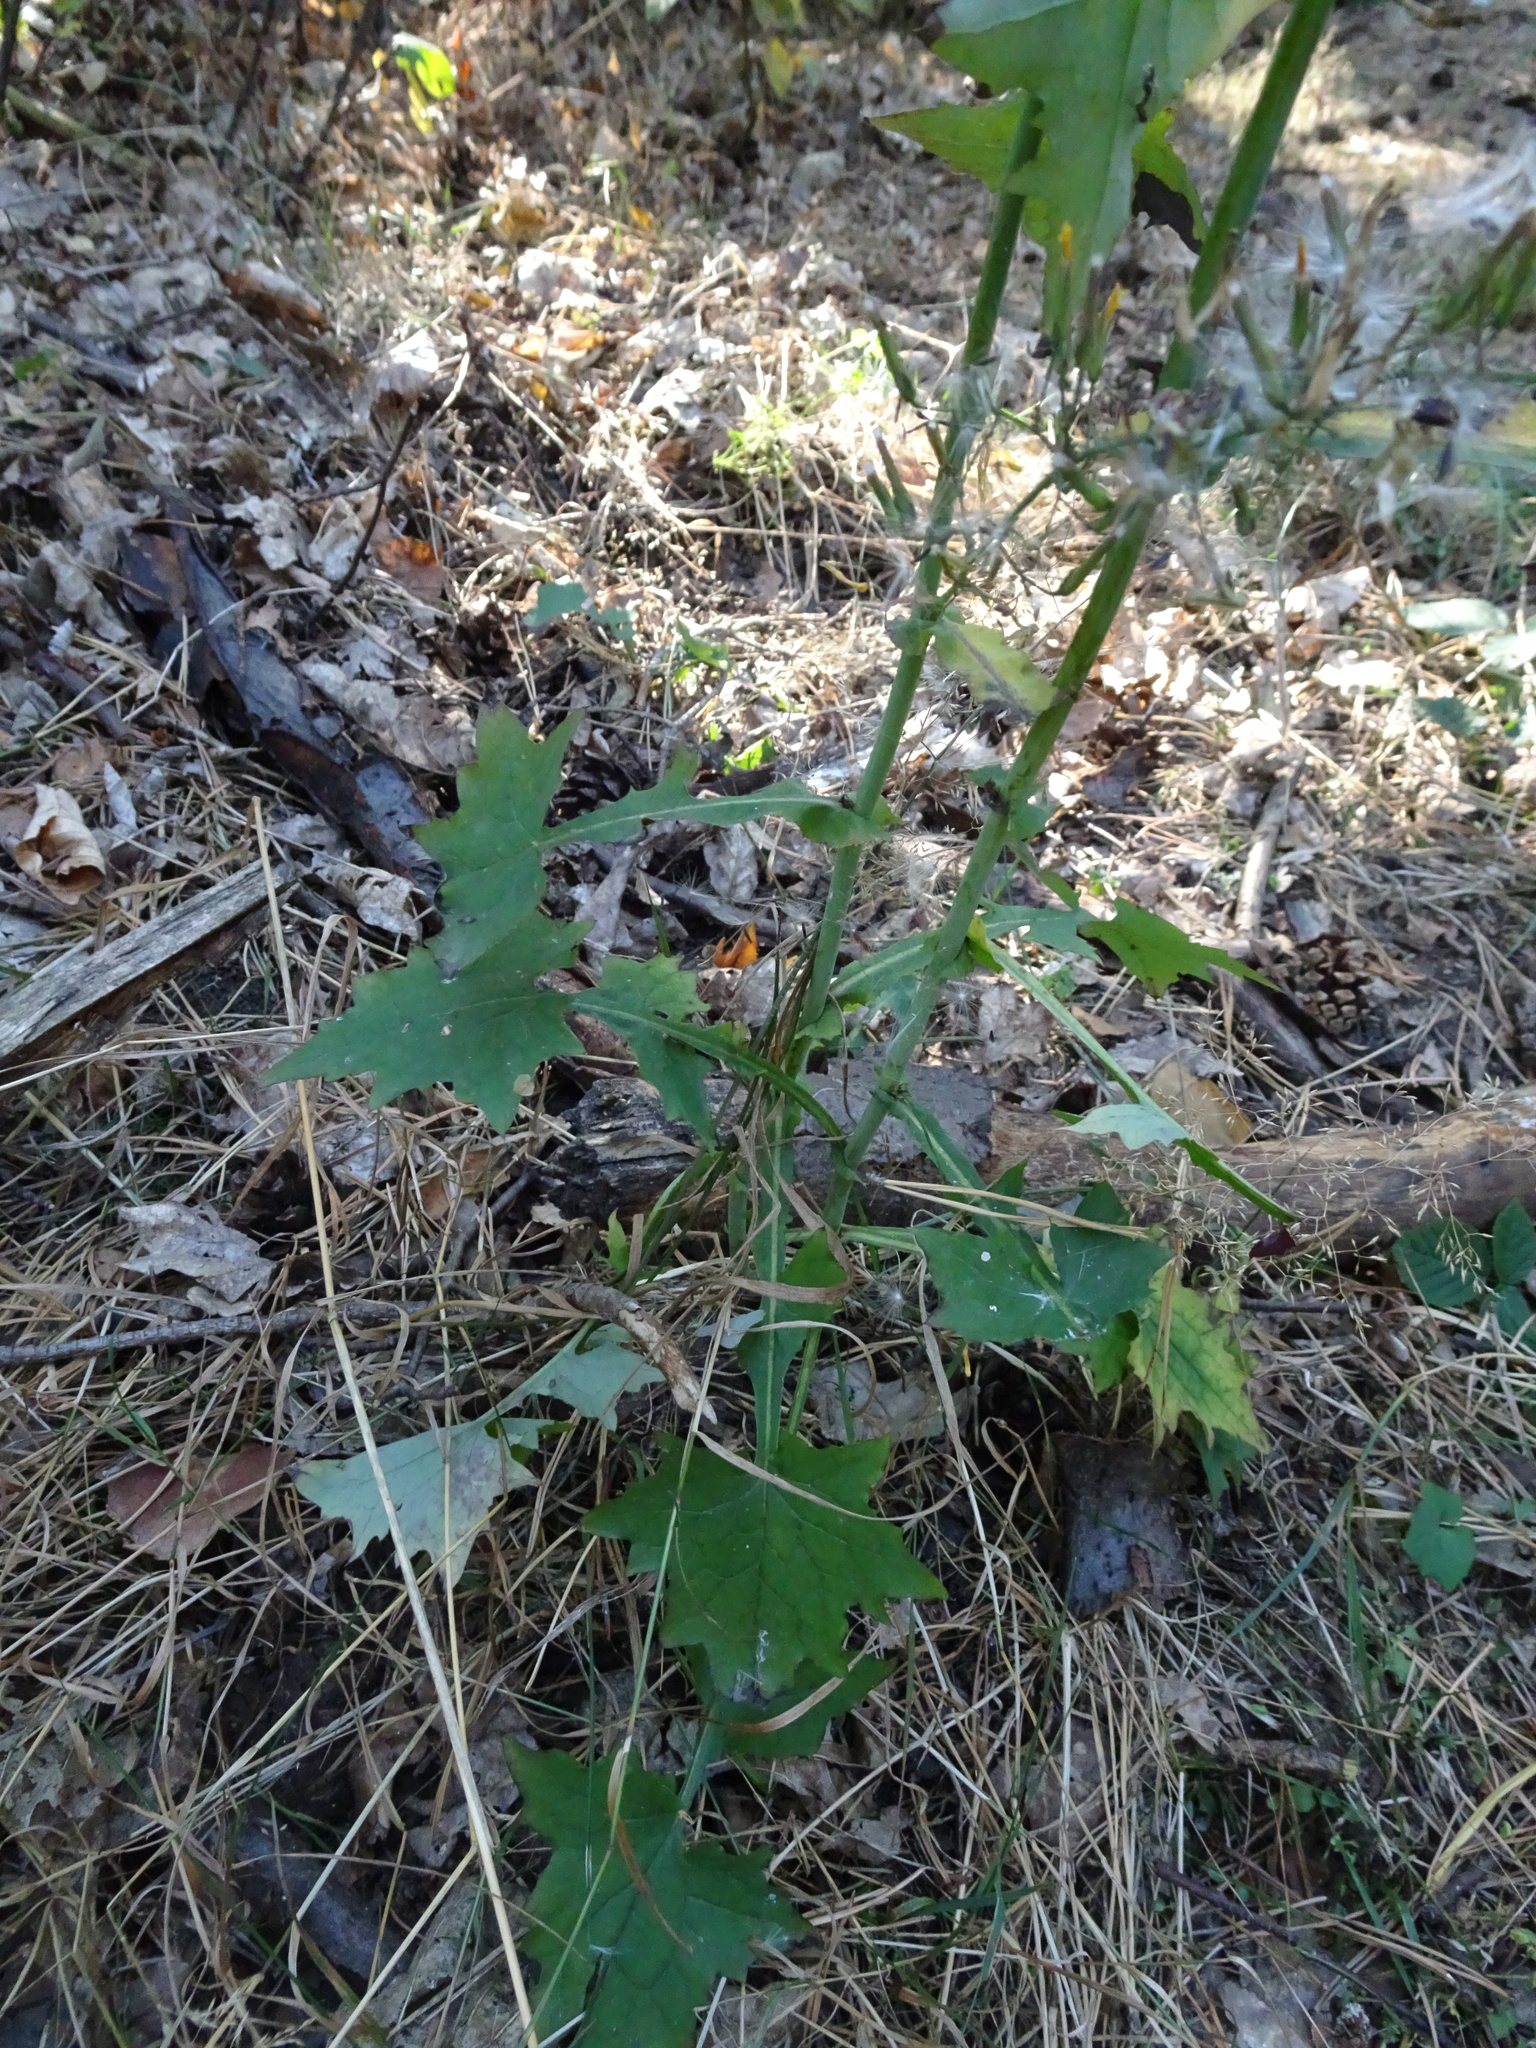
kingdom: Plantae
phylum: Tracheophyta
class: Magnoliopsida
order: Asterales
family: Asteraceae
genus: Mycelis
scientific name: Mycelis muralis
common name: Wall lettuce
